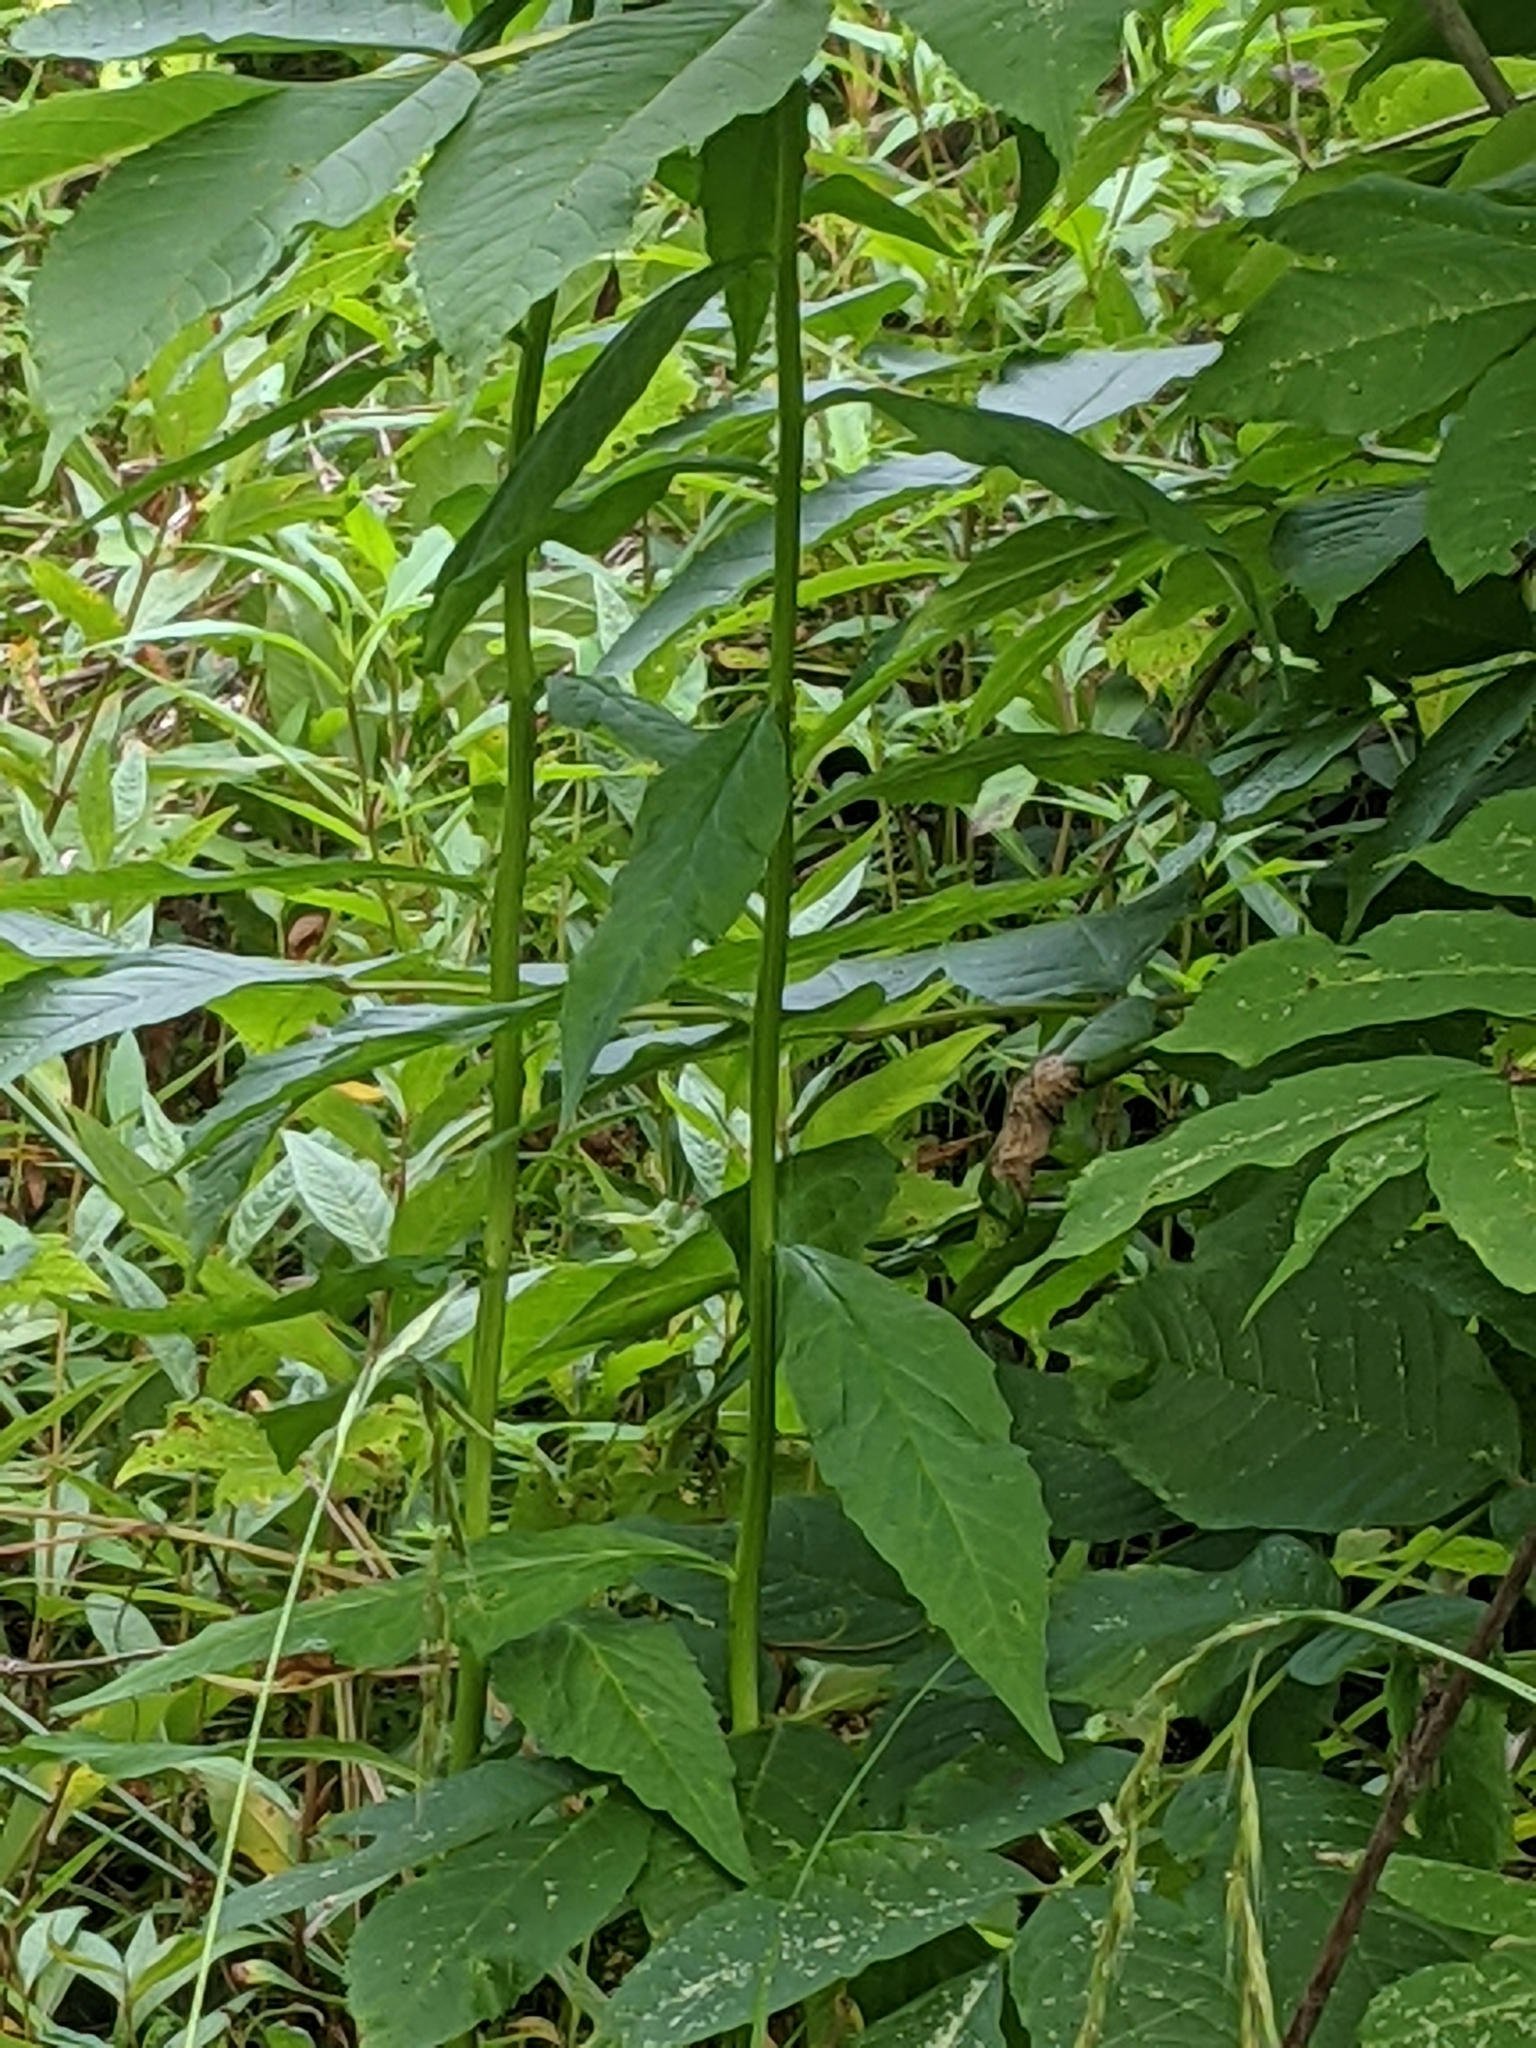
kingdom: Plantae
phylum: Tracheophyta
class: Magnoliopsida
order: Asterales
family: Campanulaceae
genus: Lobelia
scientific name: Lobelia cardinalis
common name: Cardinal flower
